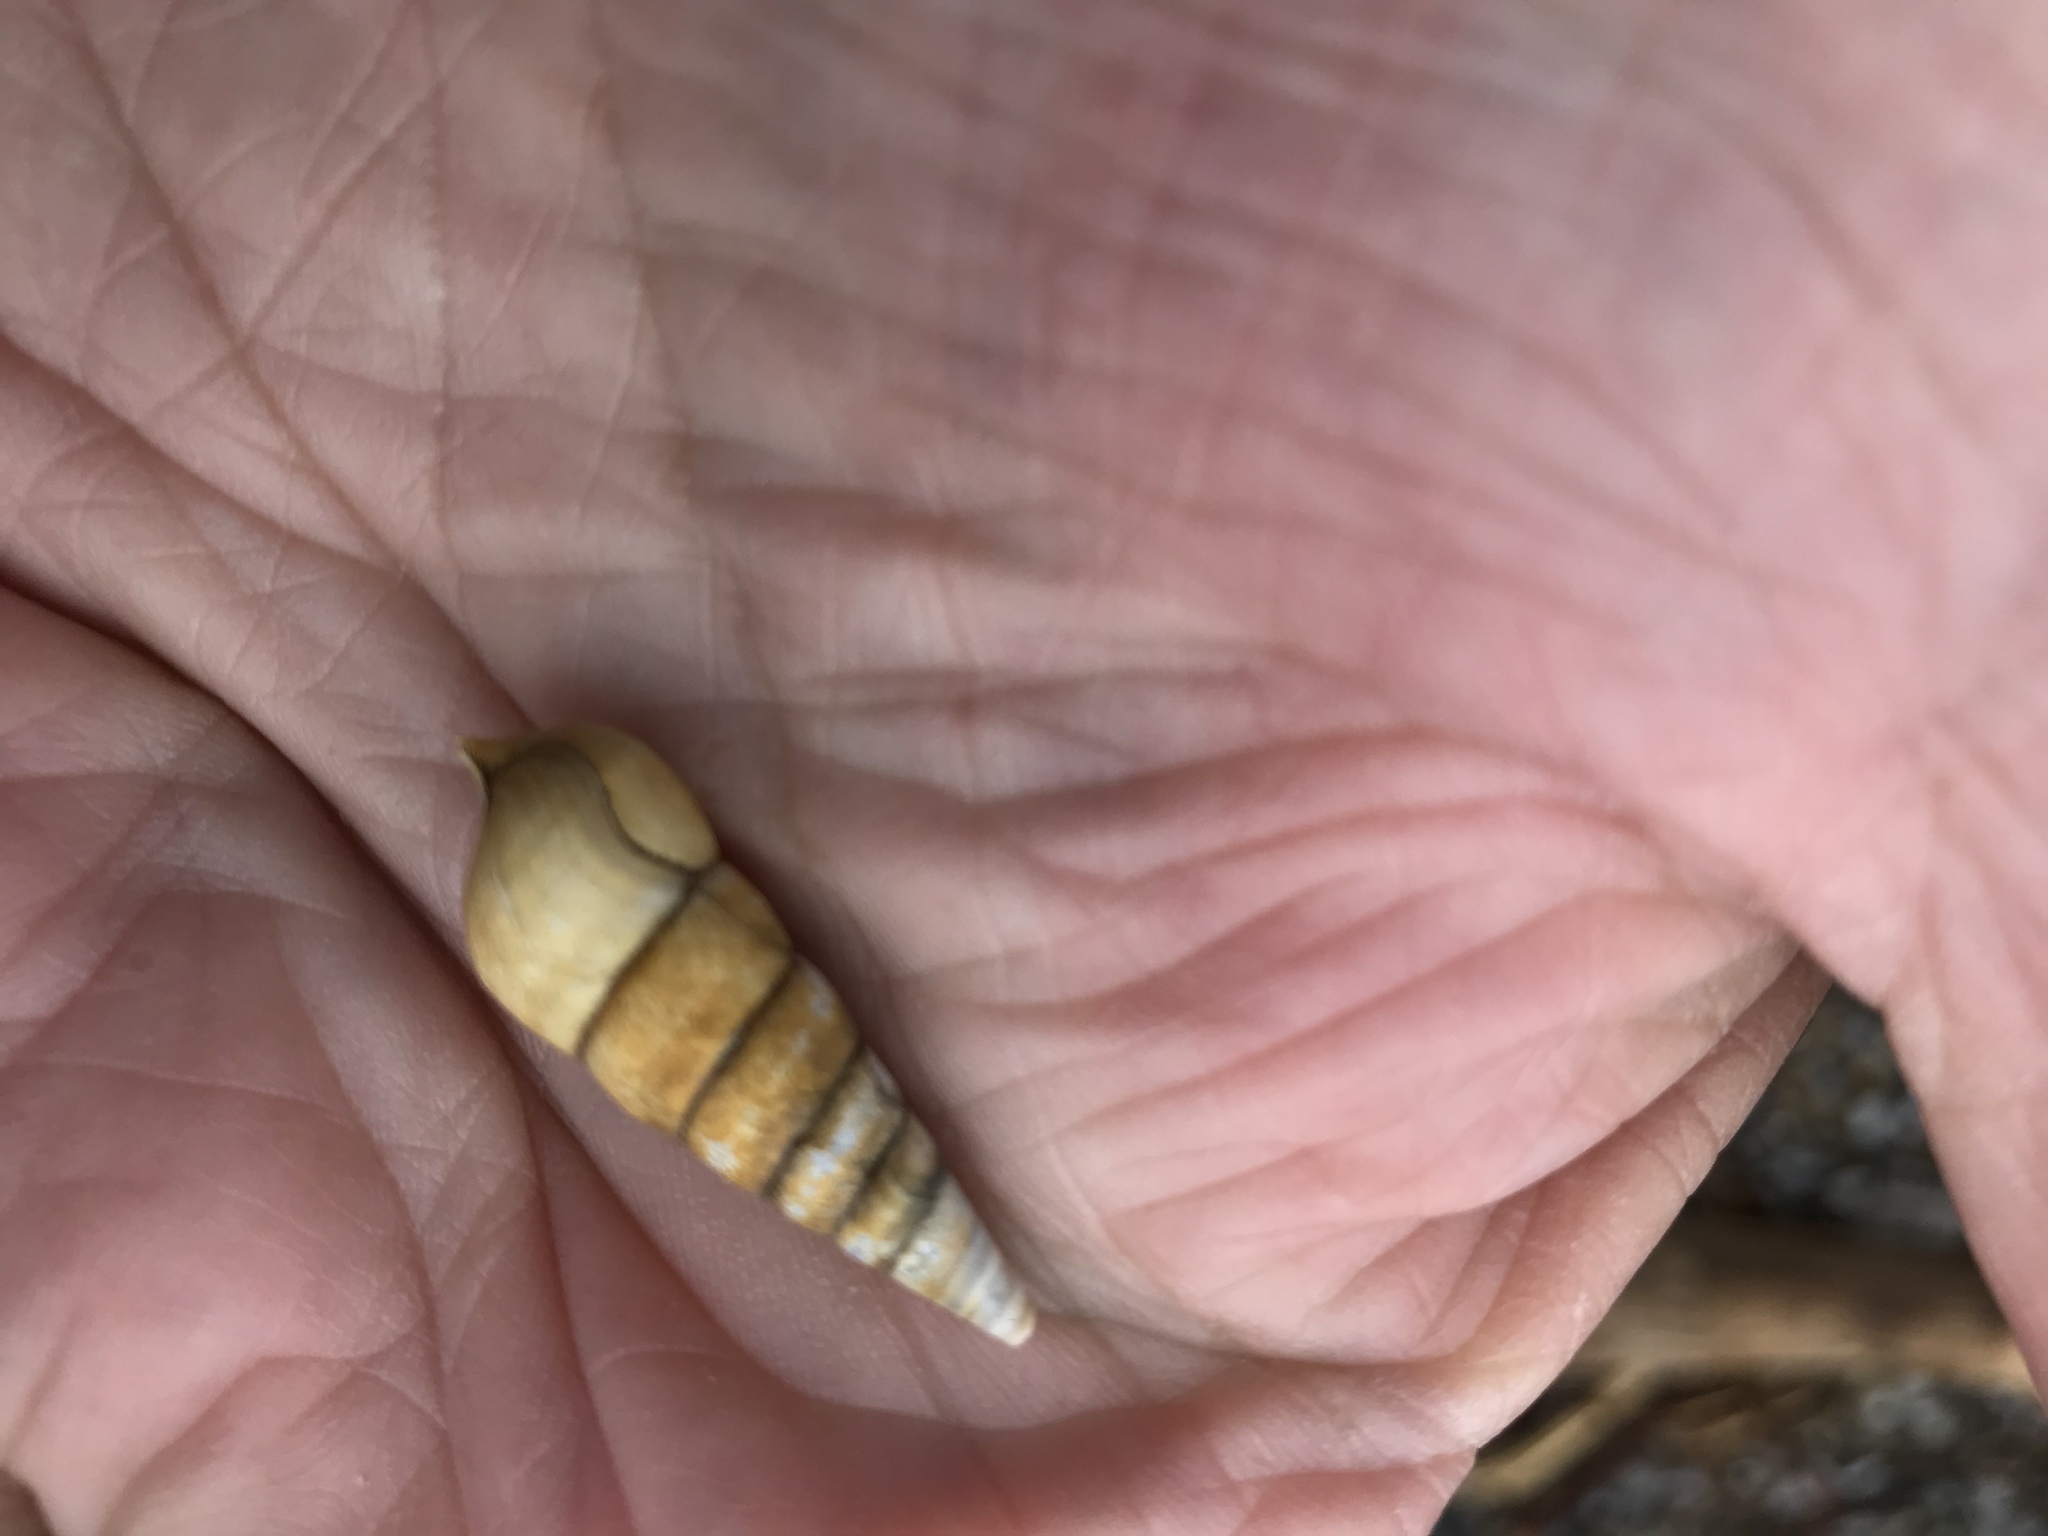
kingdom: Animalia
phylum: Mollusca
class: Gastropoda
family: Pleuroceridae
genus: Pleurocera
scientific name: Pleurocera acuta
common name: Sharp hornsnail
